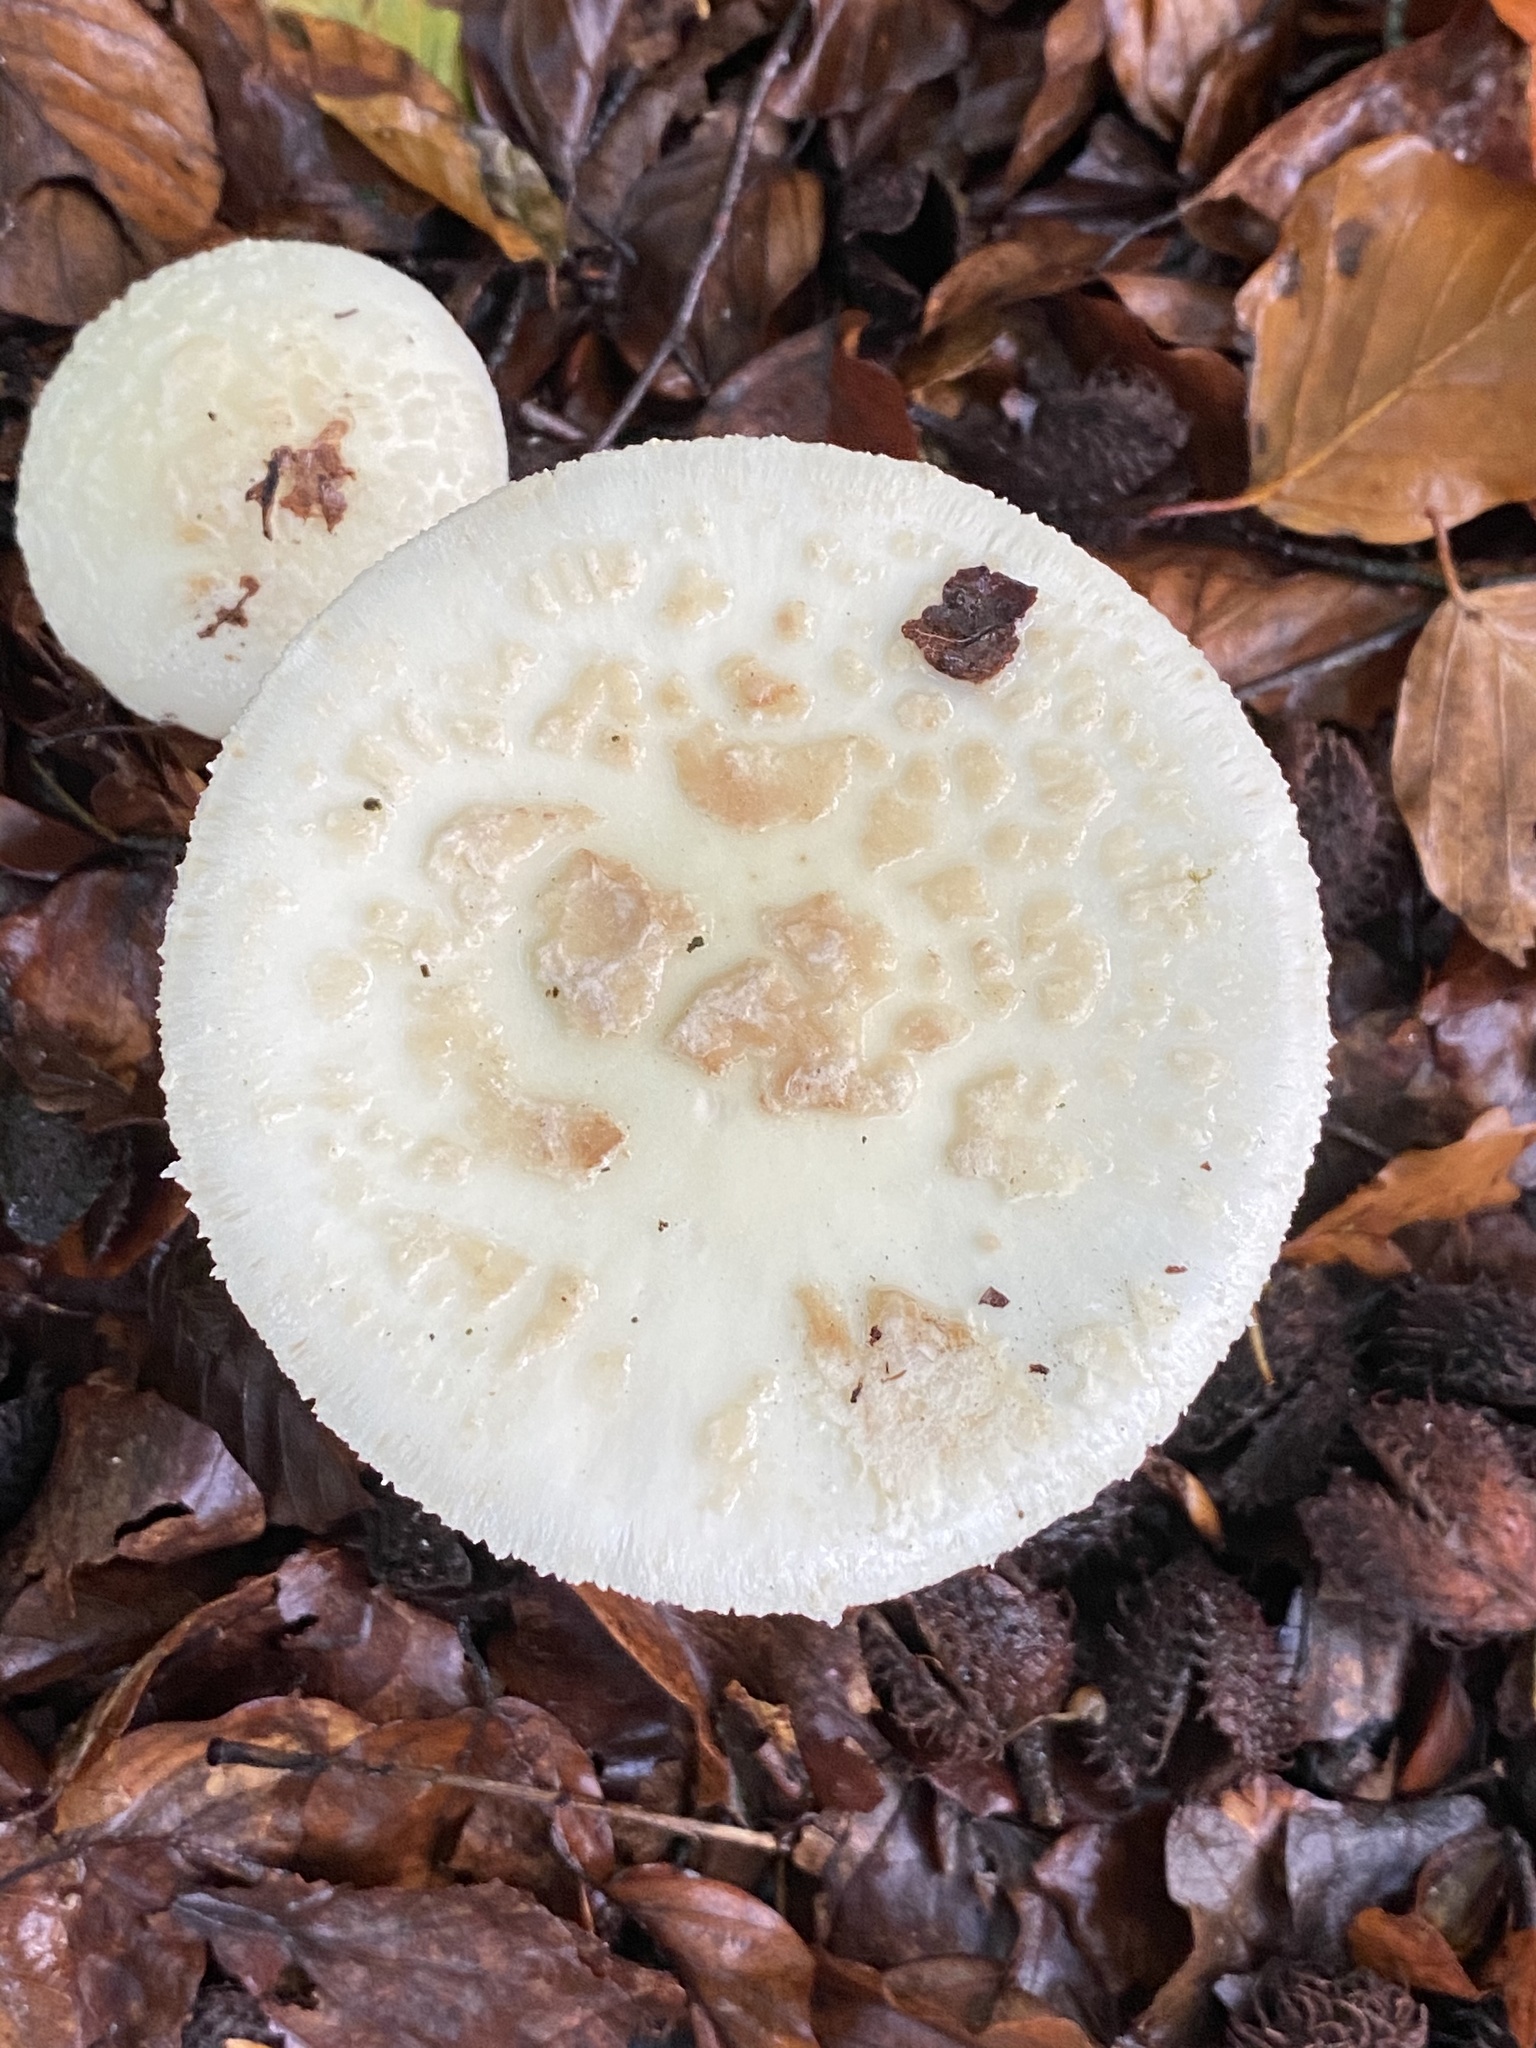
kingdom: Fungi
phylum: Basidiomycota
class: Agaricomycetes
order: Agaricales
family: Amanitaceae
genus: Amanita
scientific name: Amanita citrina
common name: False death-cap
